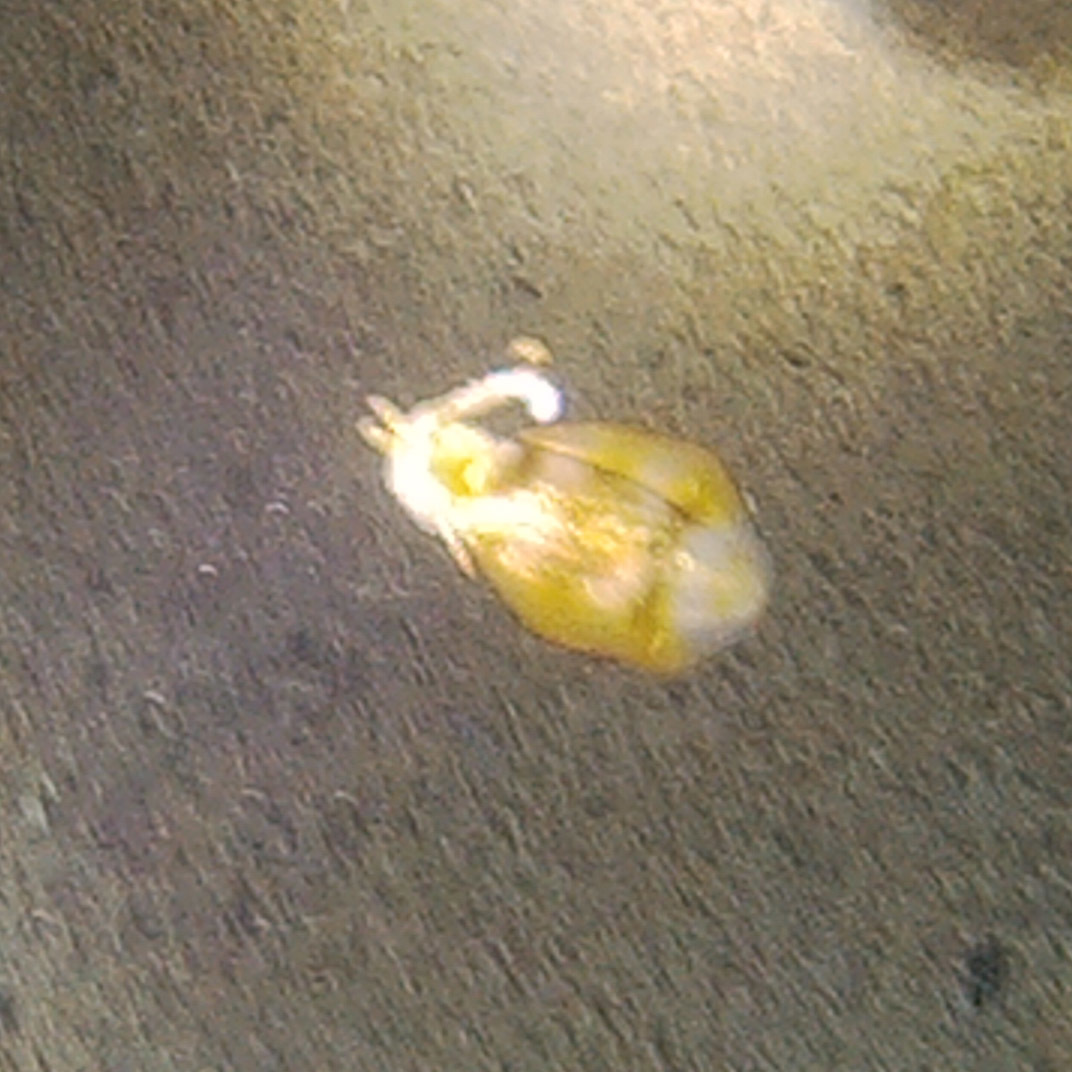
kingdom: Animalia
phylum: Mollusca
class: Cephalopoda
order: Myopsida
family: Loliginidae
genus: Sepioteuthis
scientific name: Sepioteuthis lessoniana
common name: Bigfin reef squid
